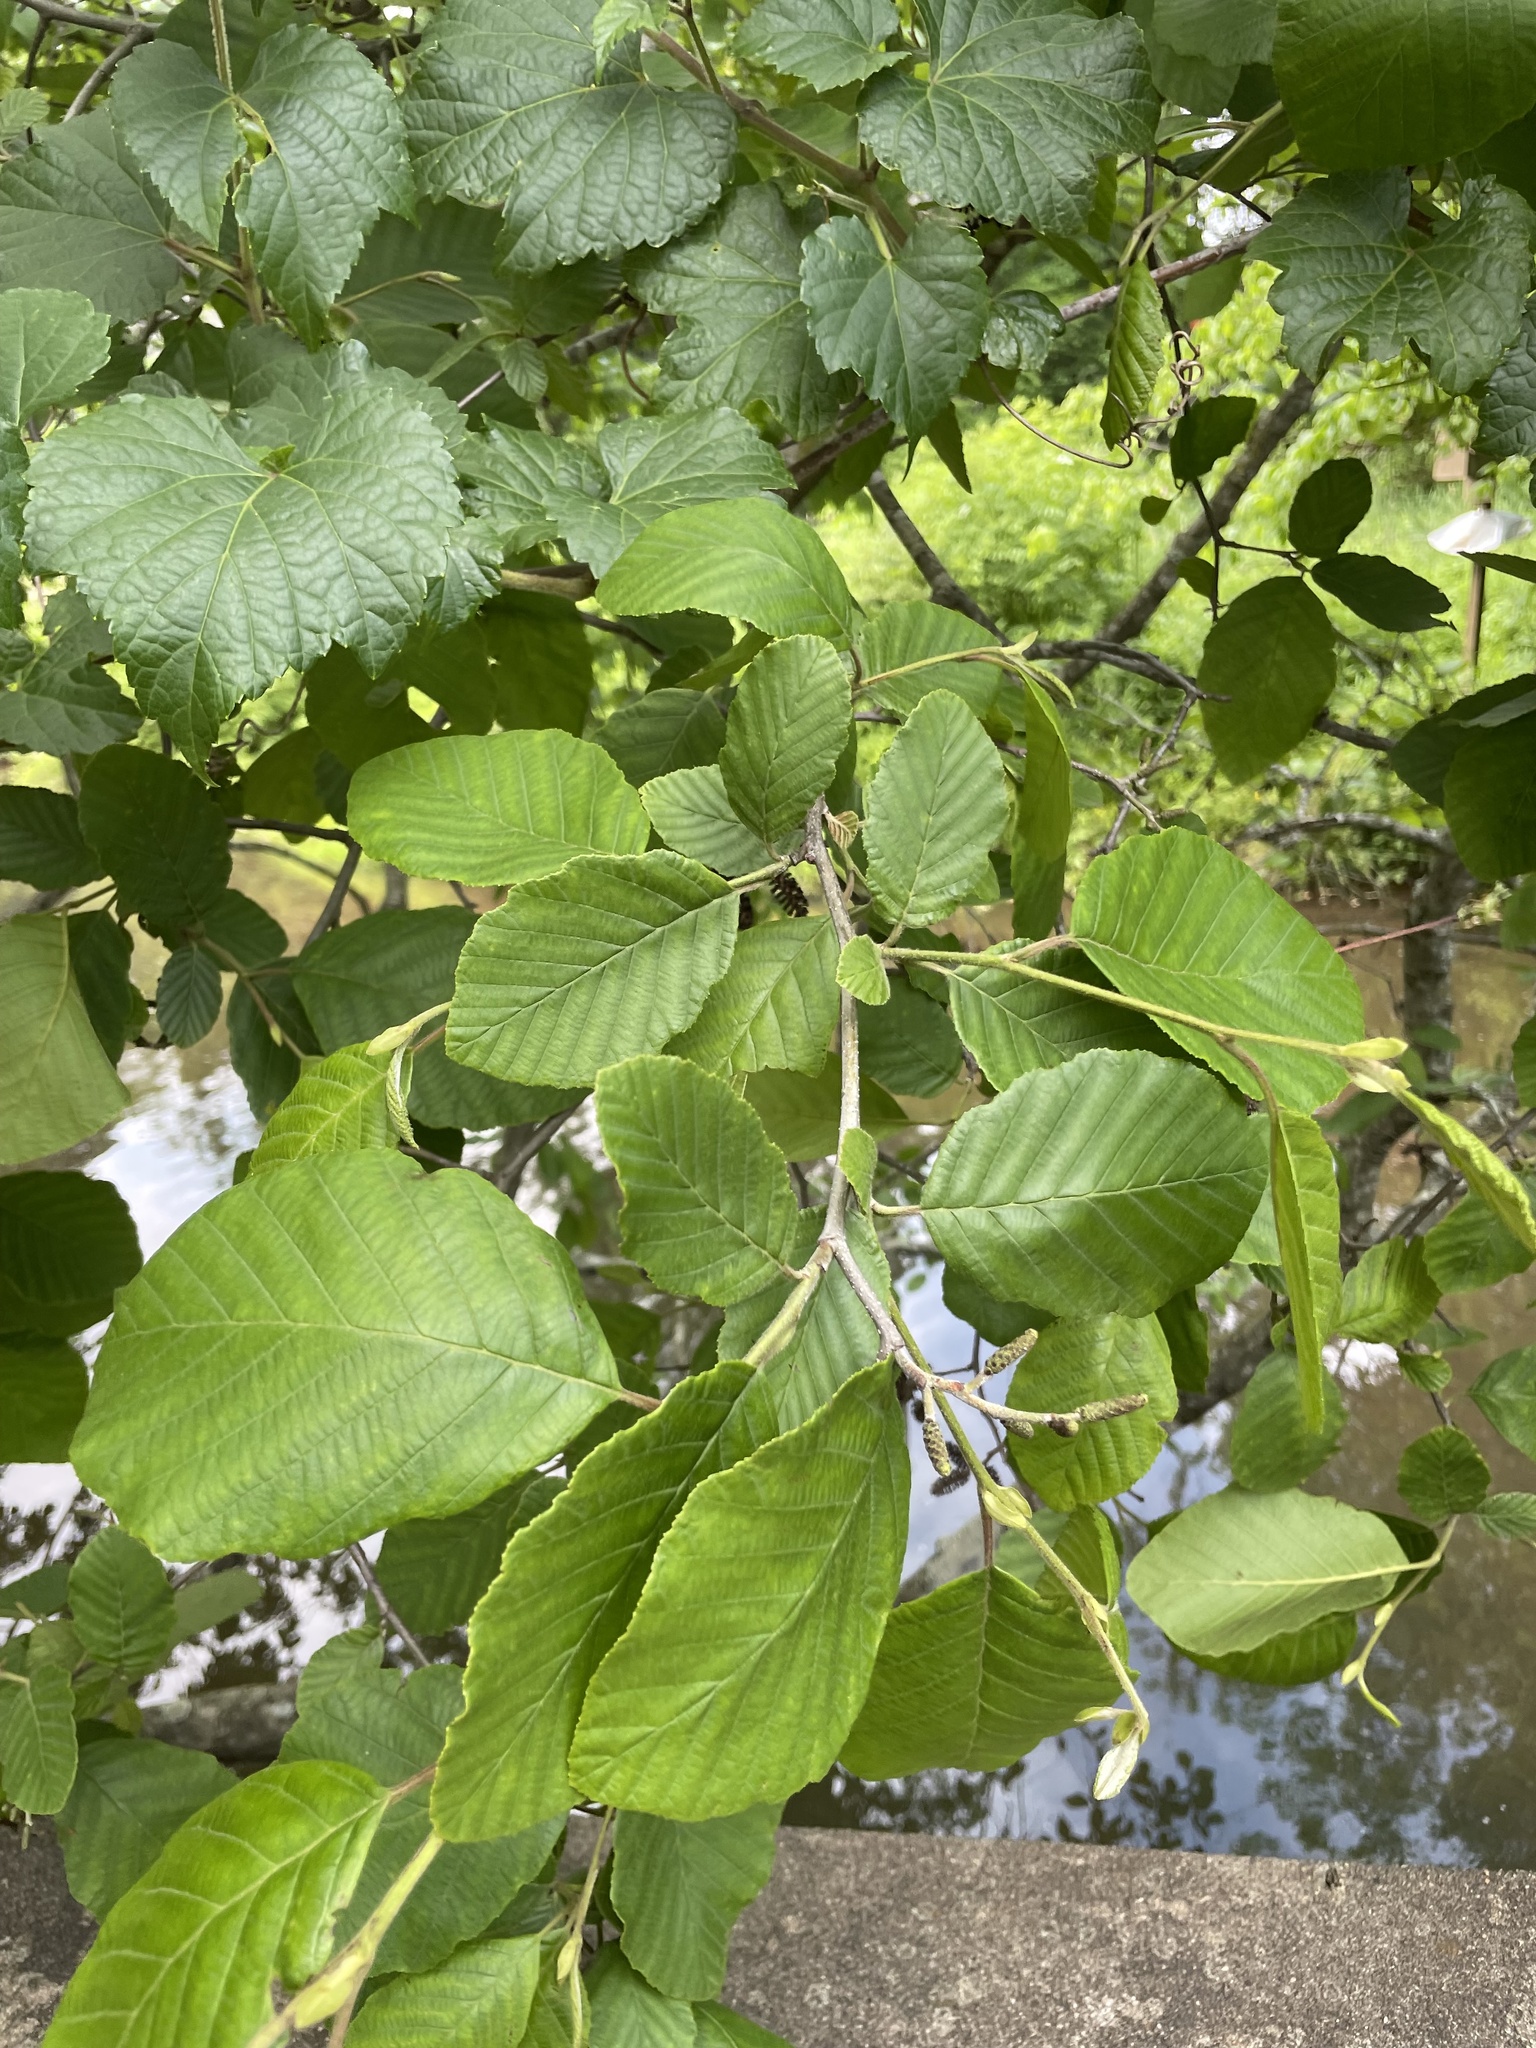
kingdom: Plantae
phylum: Tracheophyta
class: Magnoliopsida
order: Fagales
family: Betulaceae
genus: Alnus
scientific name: Alnus serrulata
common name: Hazel alder
